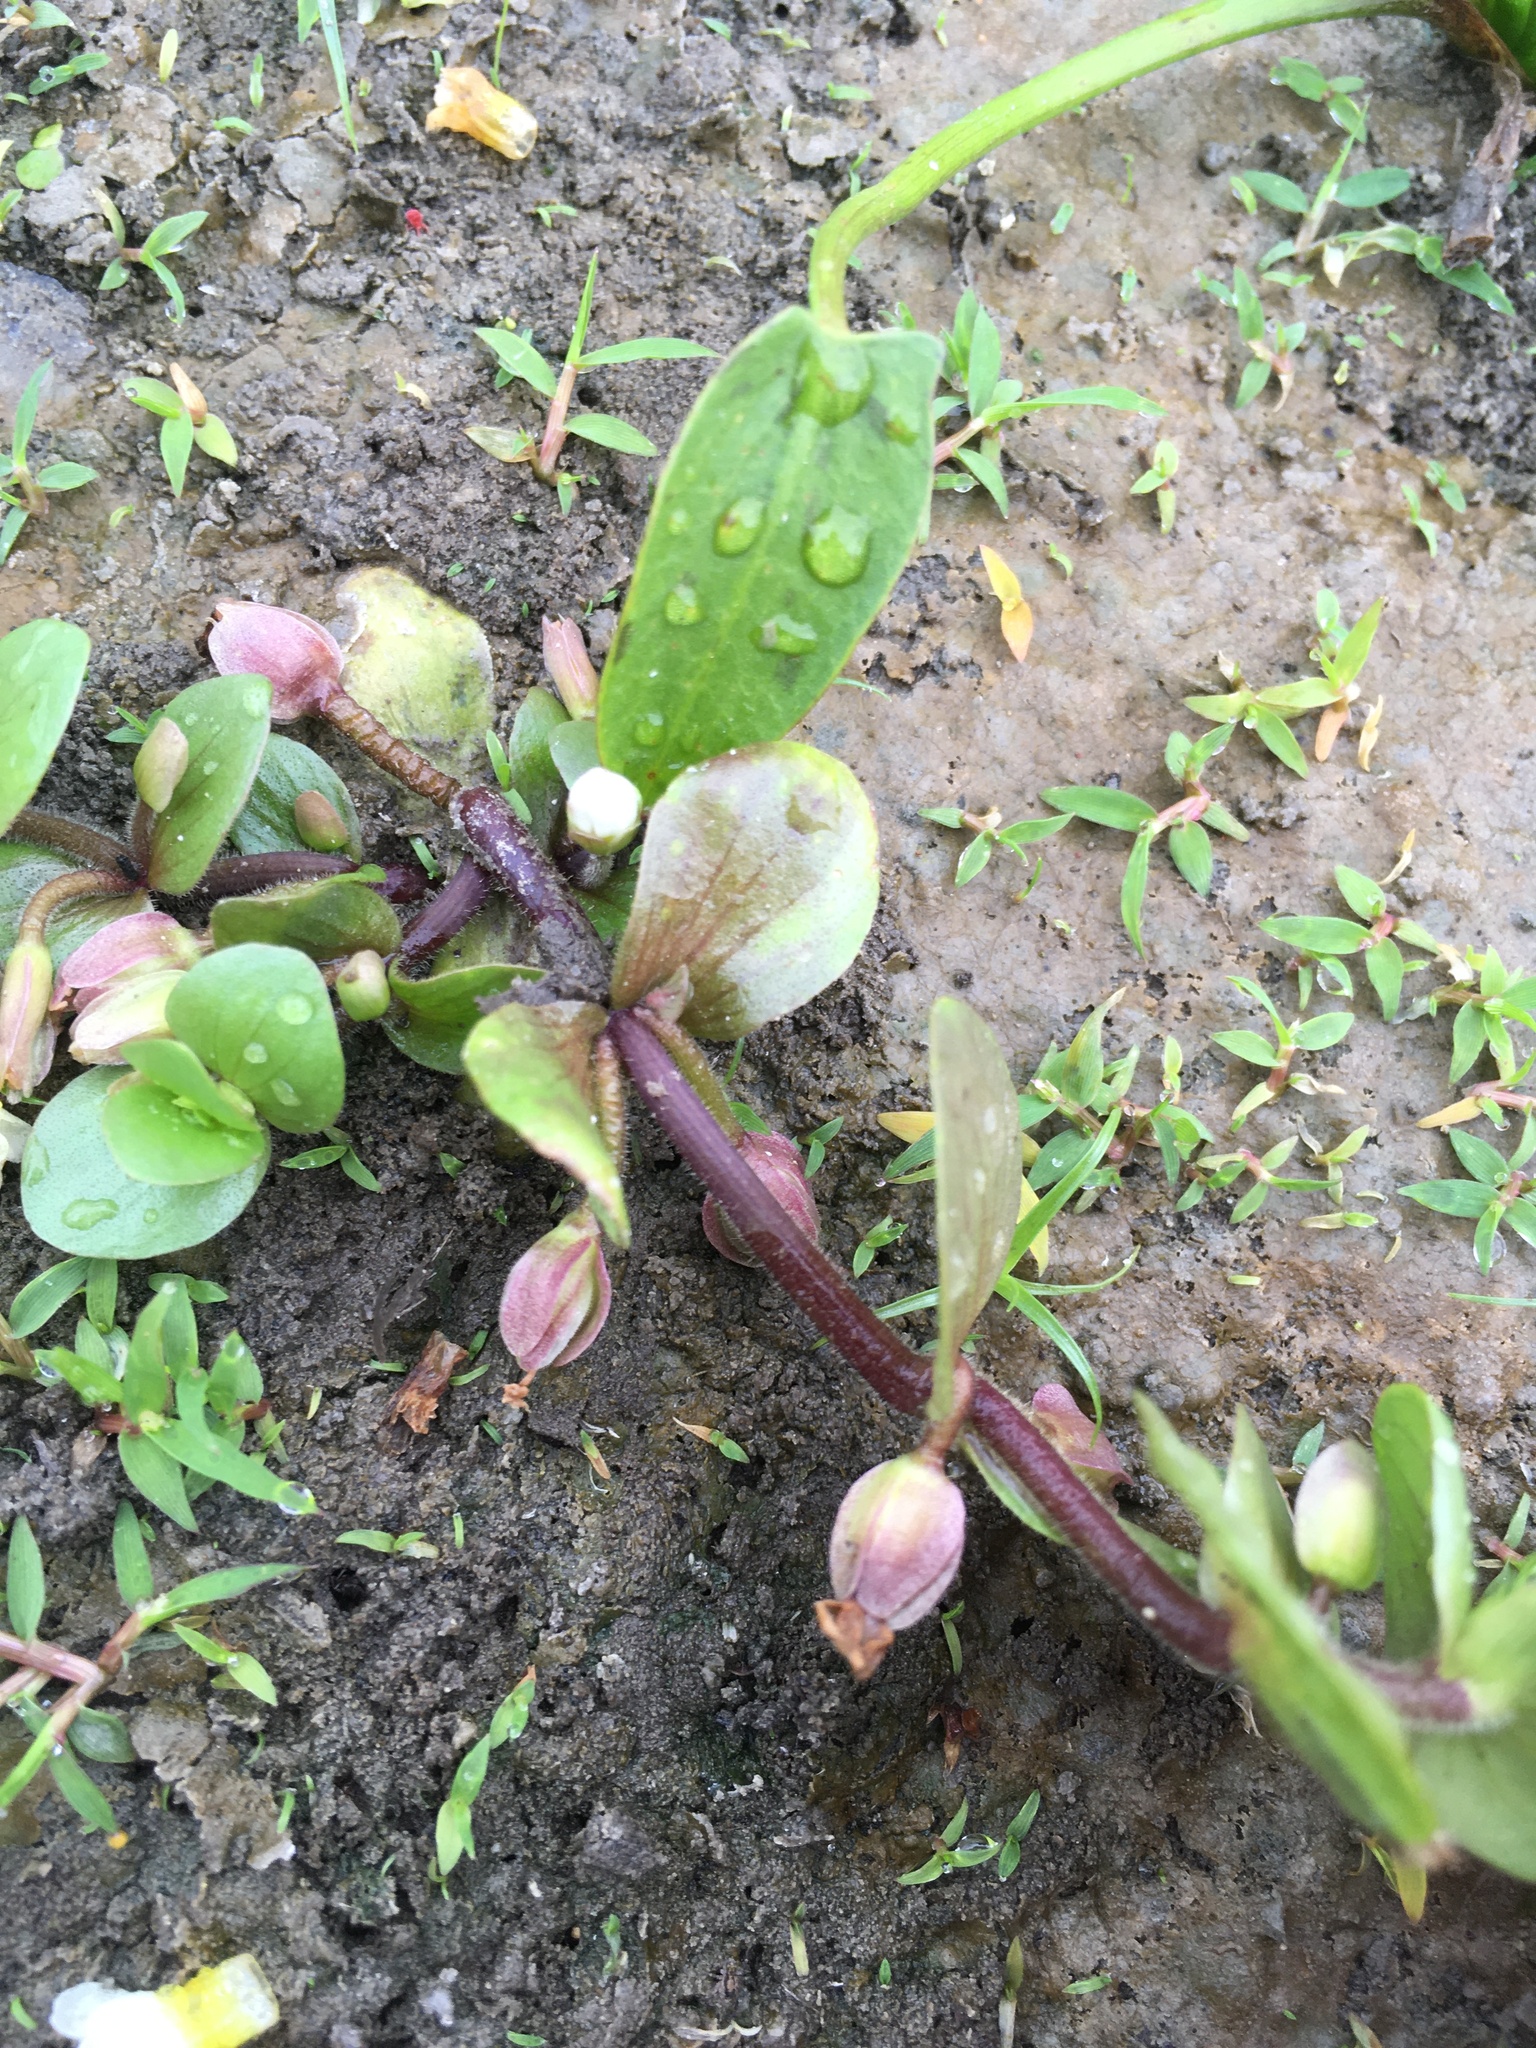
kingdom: Plantae
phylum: Tracheophyta
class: Magnoliopsida
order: Lamiales
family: Plantaginaceae
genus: Bacopa
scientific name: Bacopa rotundifolia
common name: Disc water hyssop
